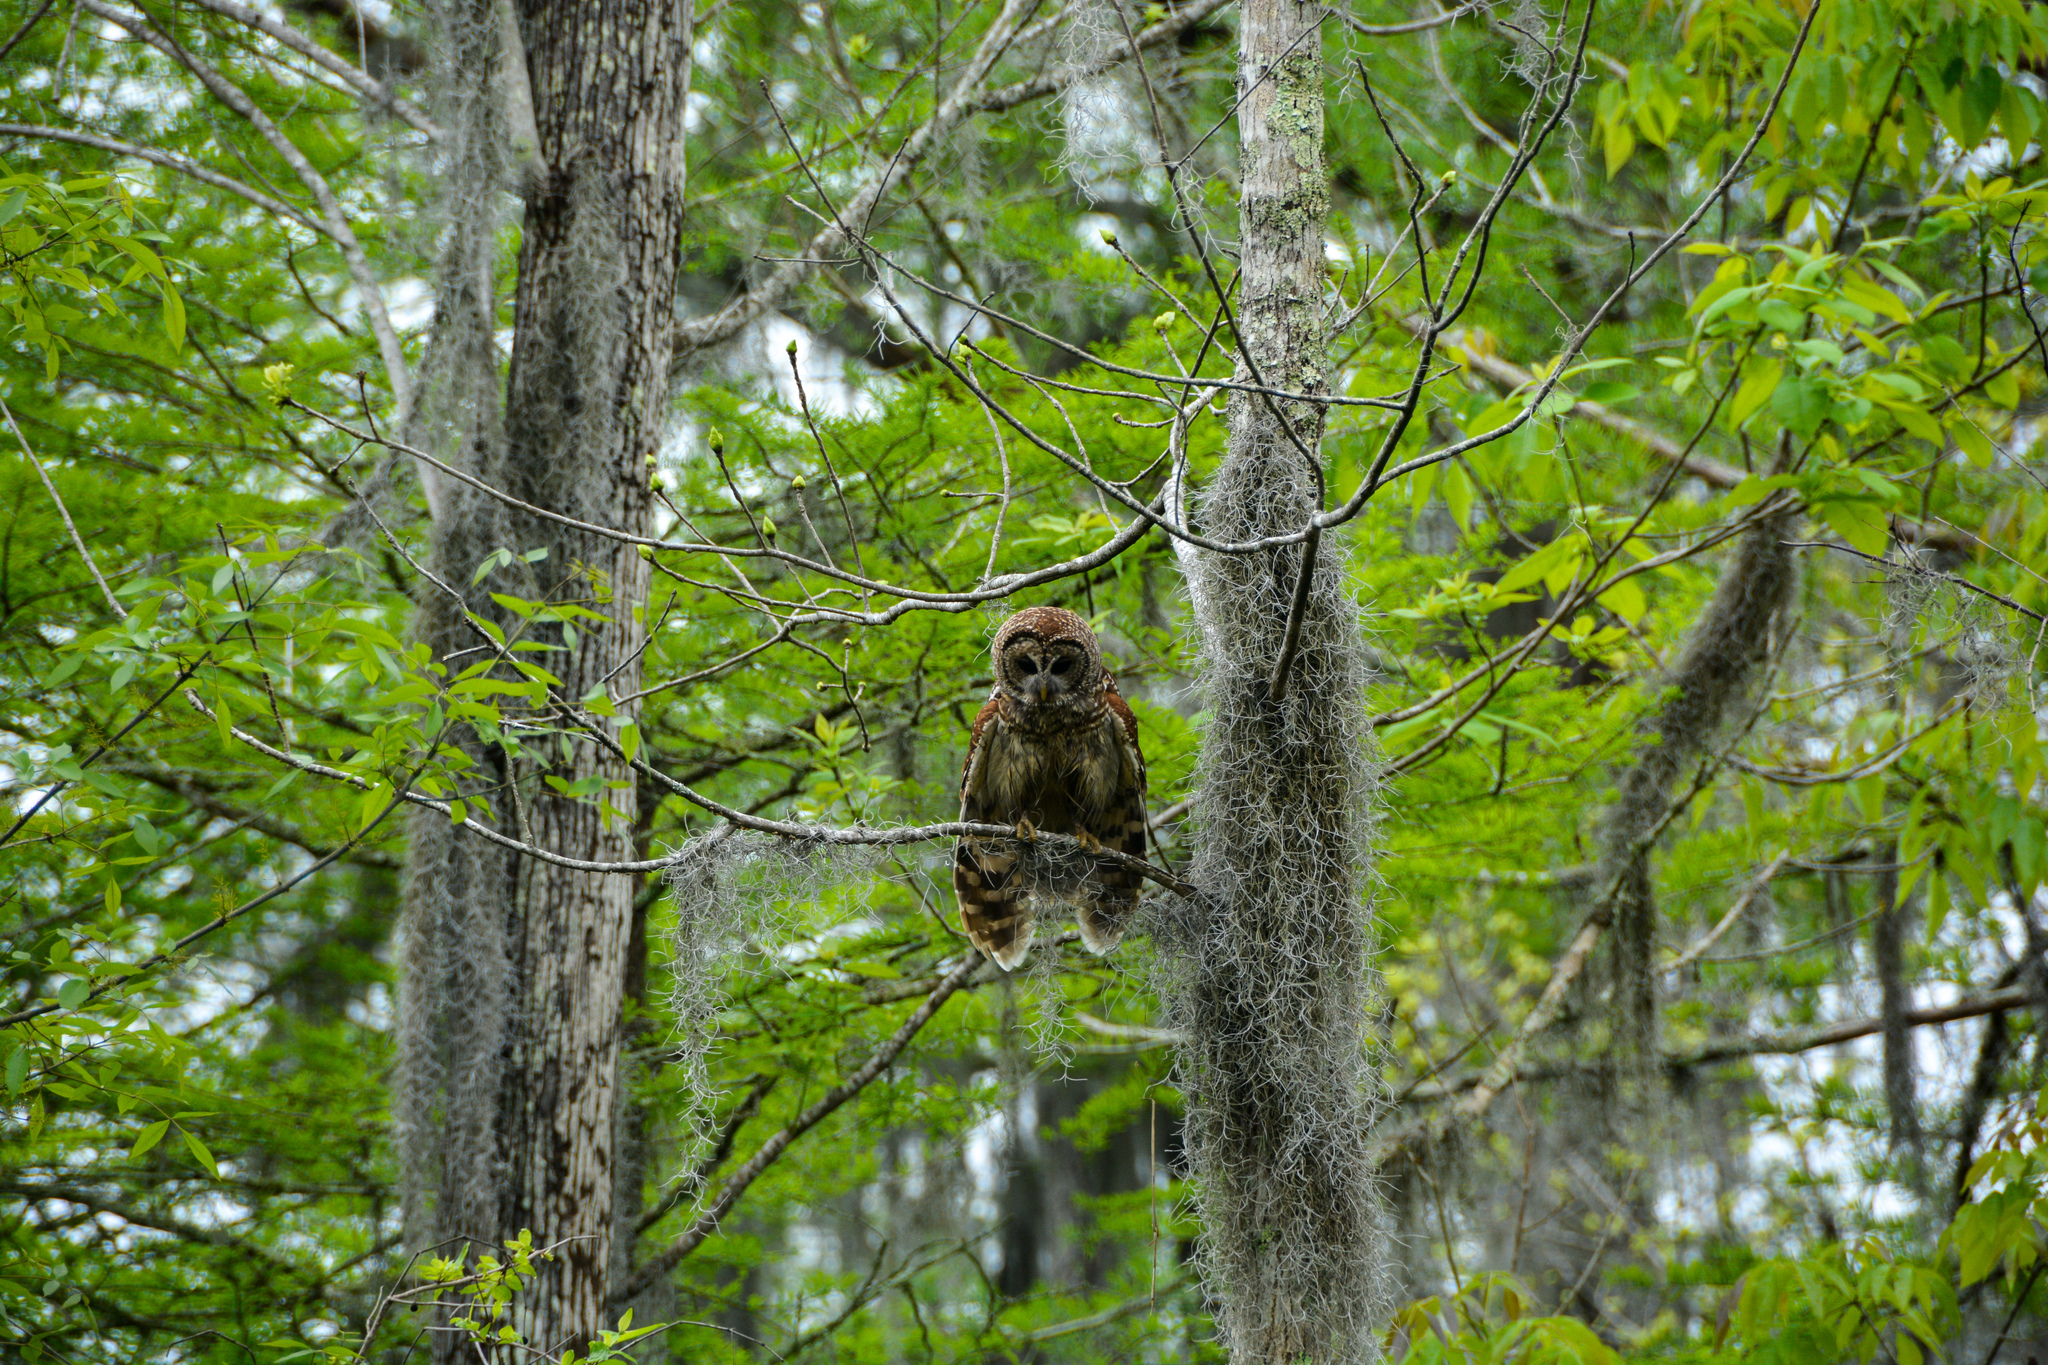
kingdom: Animalia
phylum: Chordata
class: Aves
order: Strigiformes
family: Strigidae
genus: Strix
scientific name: Strix varia
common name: Barred owl
